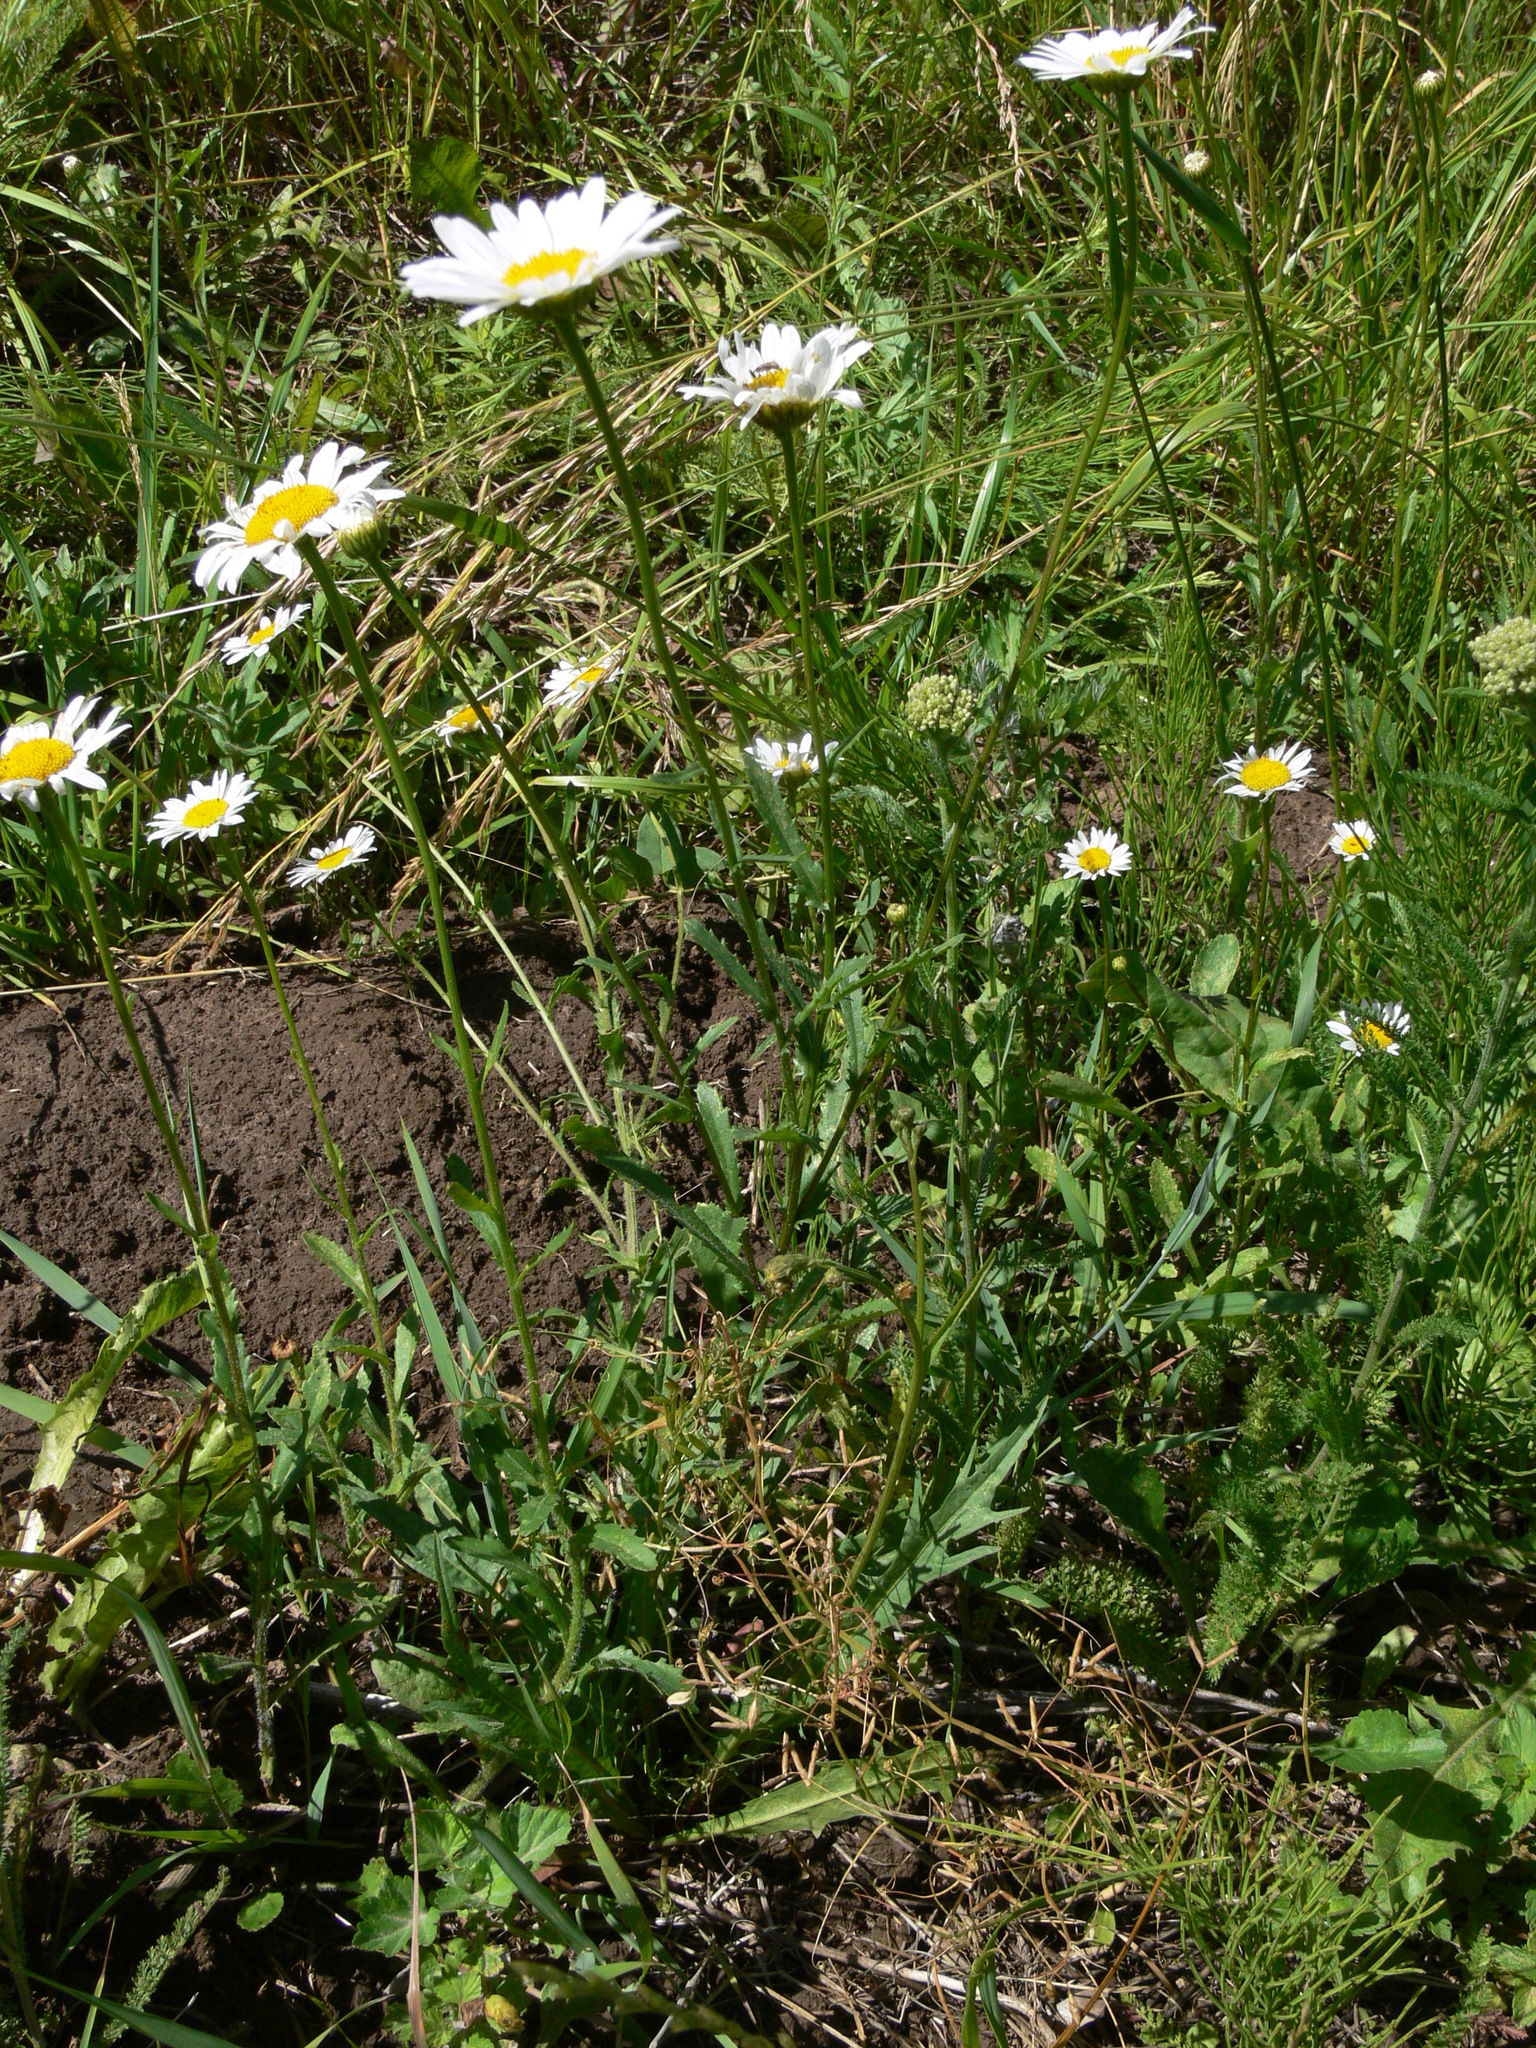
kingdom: Plantae
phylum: Tracheophyta
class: Magnoliopsida
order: Asterales
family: Asteraceae
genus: Leucanthemum
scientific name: Leucanthemum vulgare
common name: Oxeye daisy
